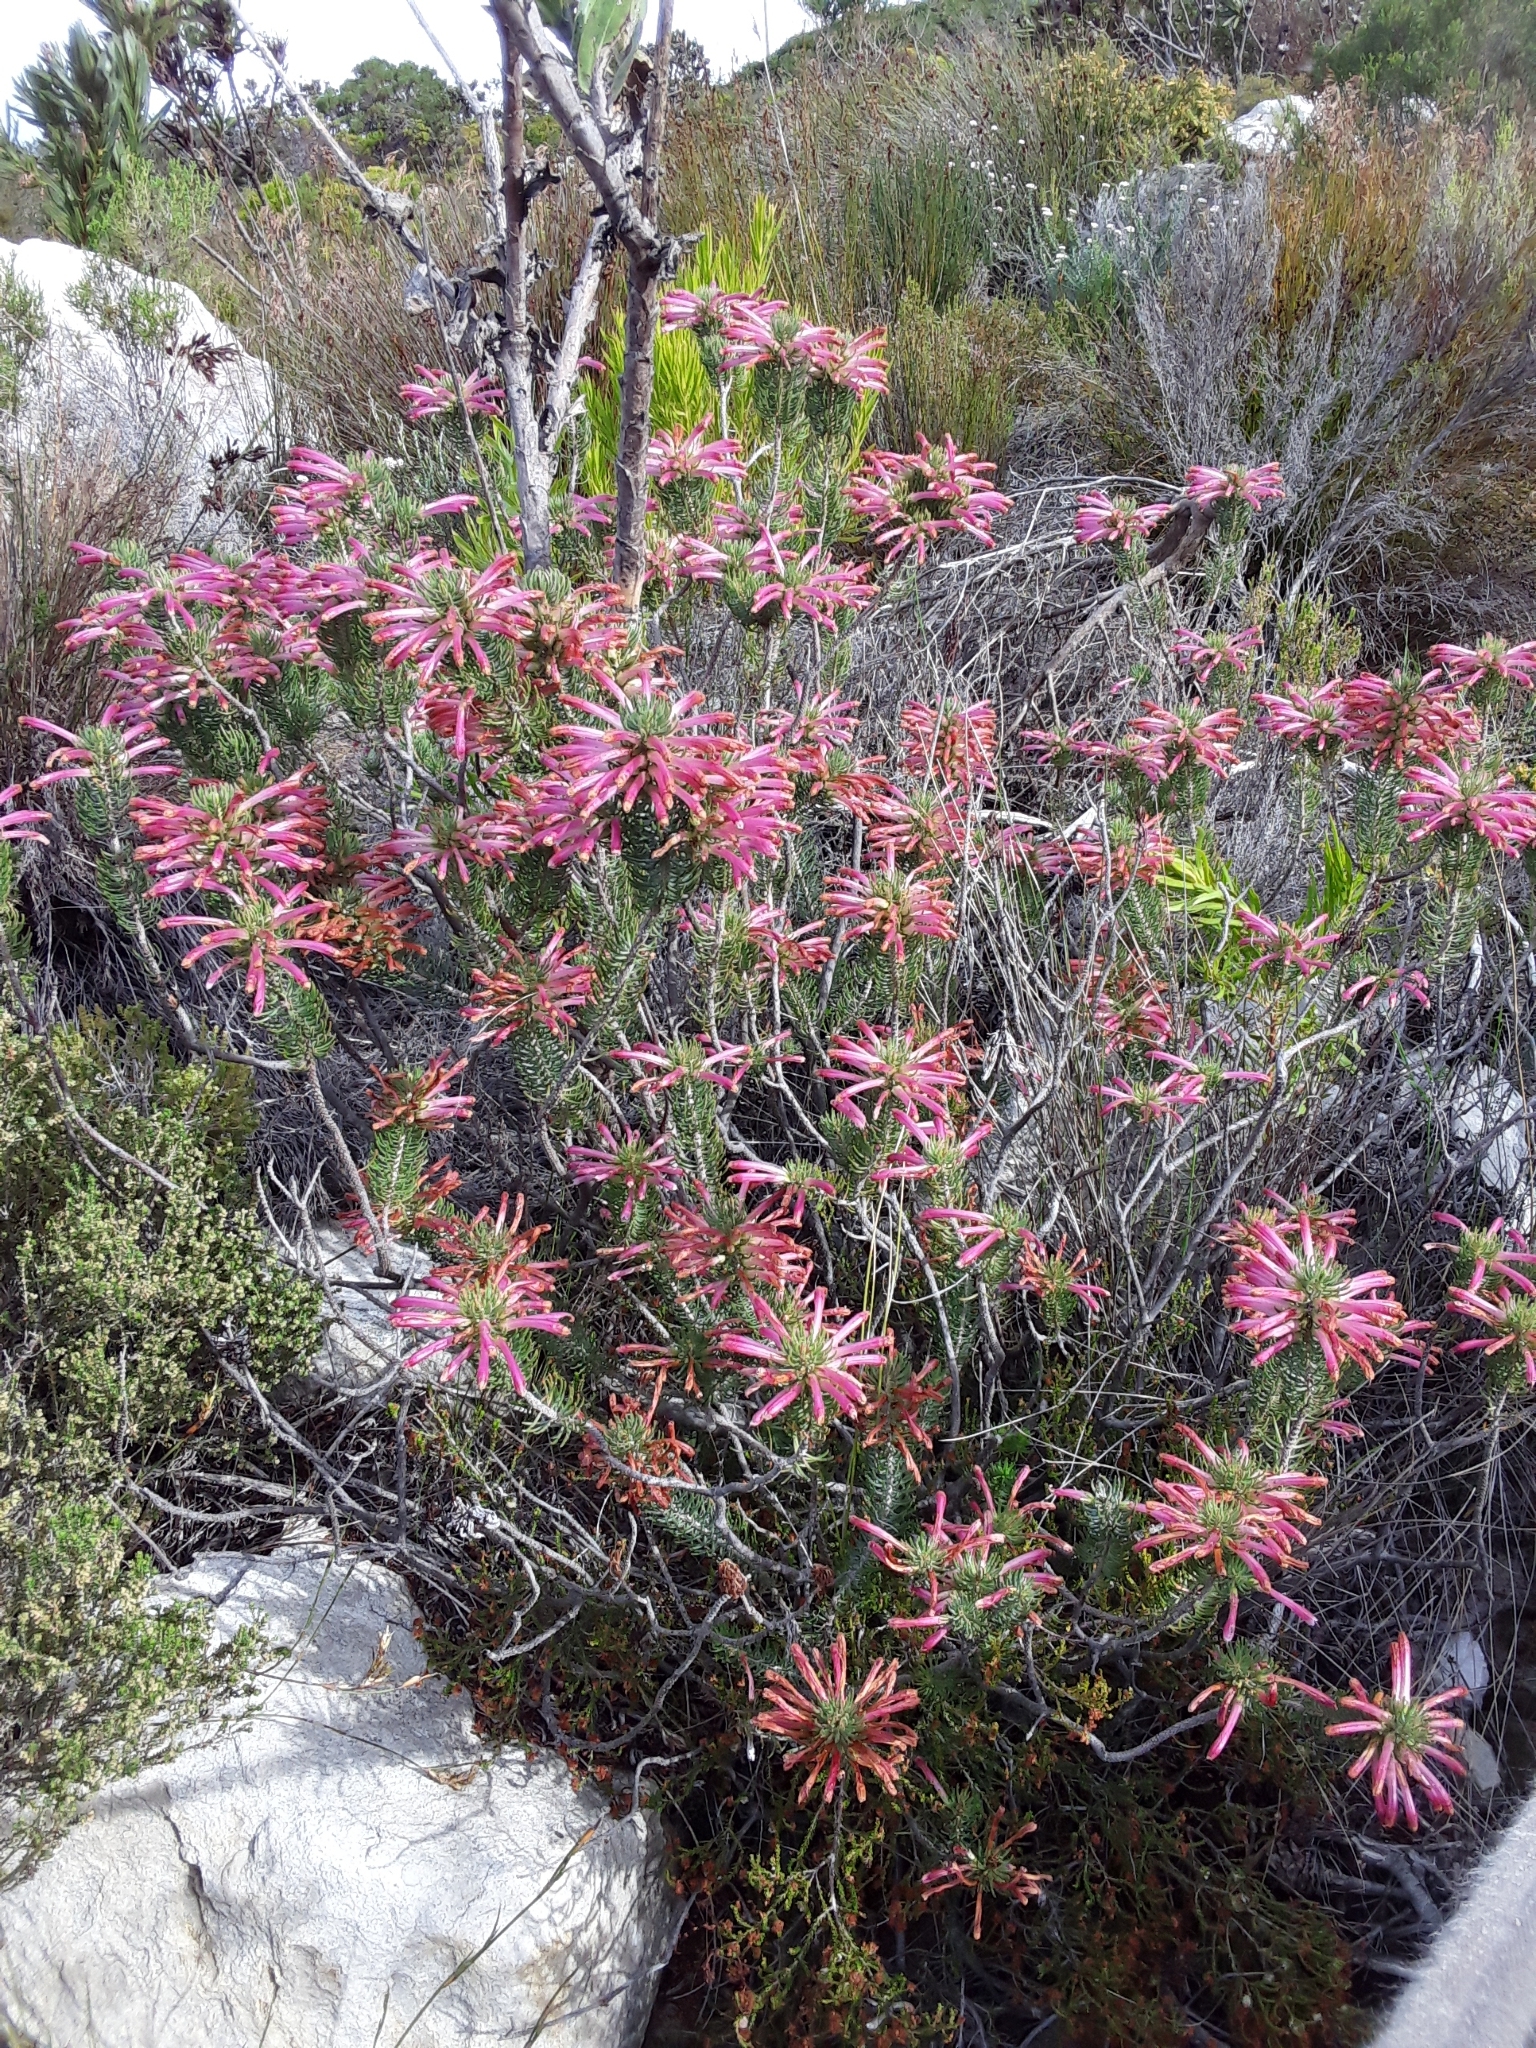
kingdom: Plantae
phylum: Tracheophyta
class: Magnoliopsida
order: Ericales
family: Ericaceae
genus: Erica
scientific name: Erica thomae
